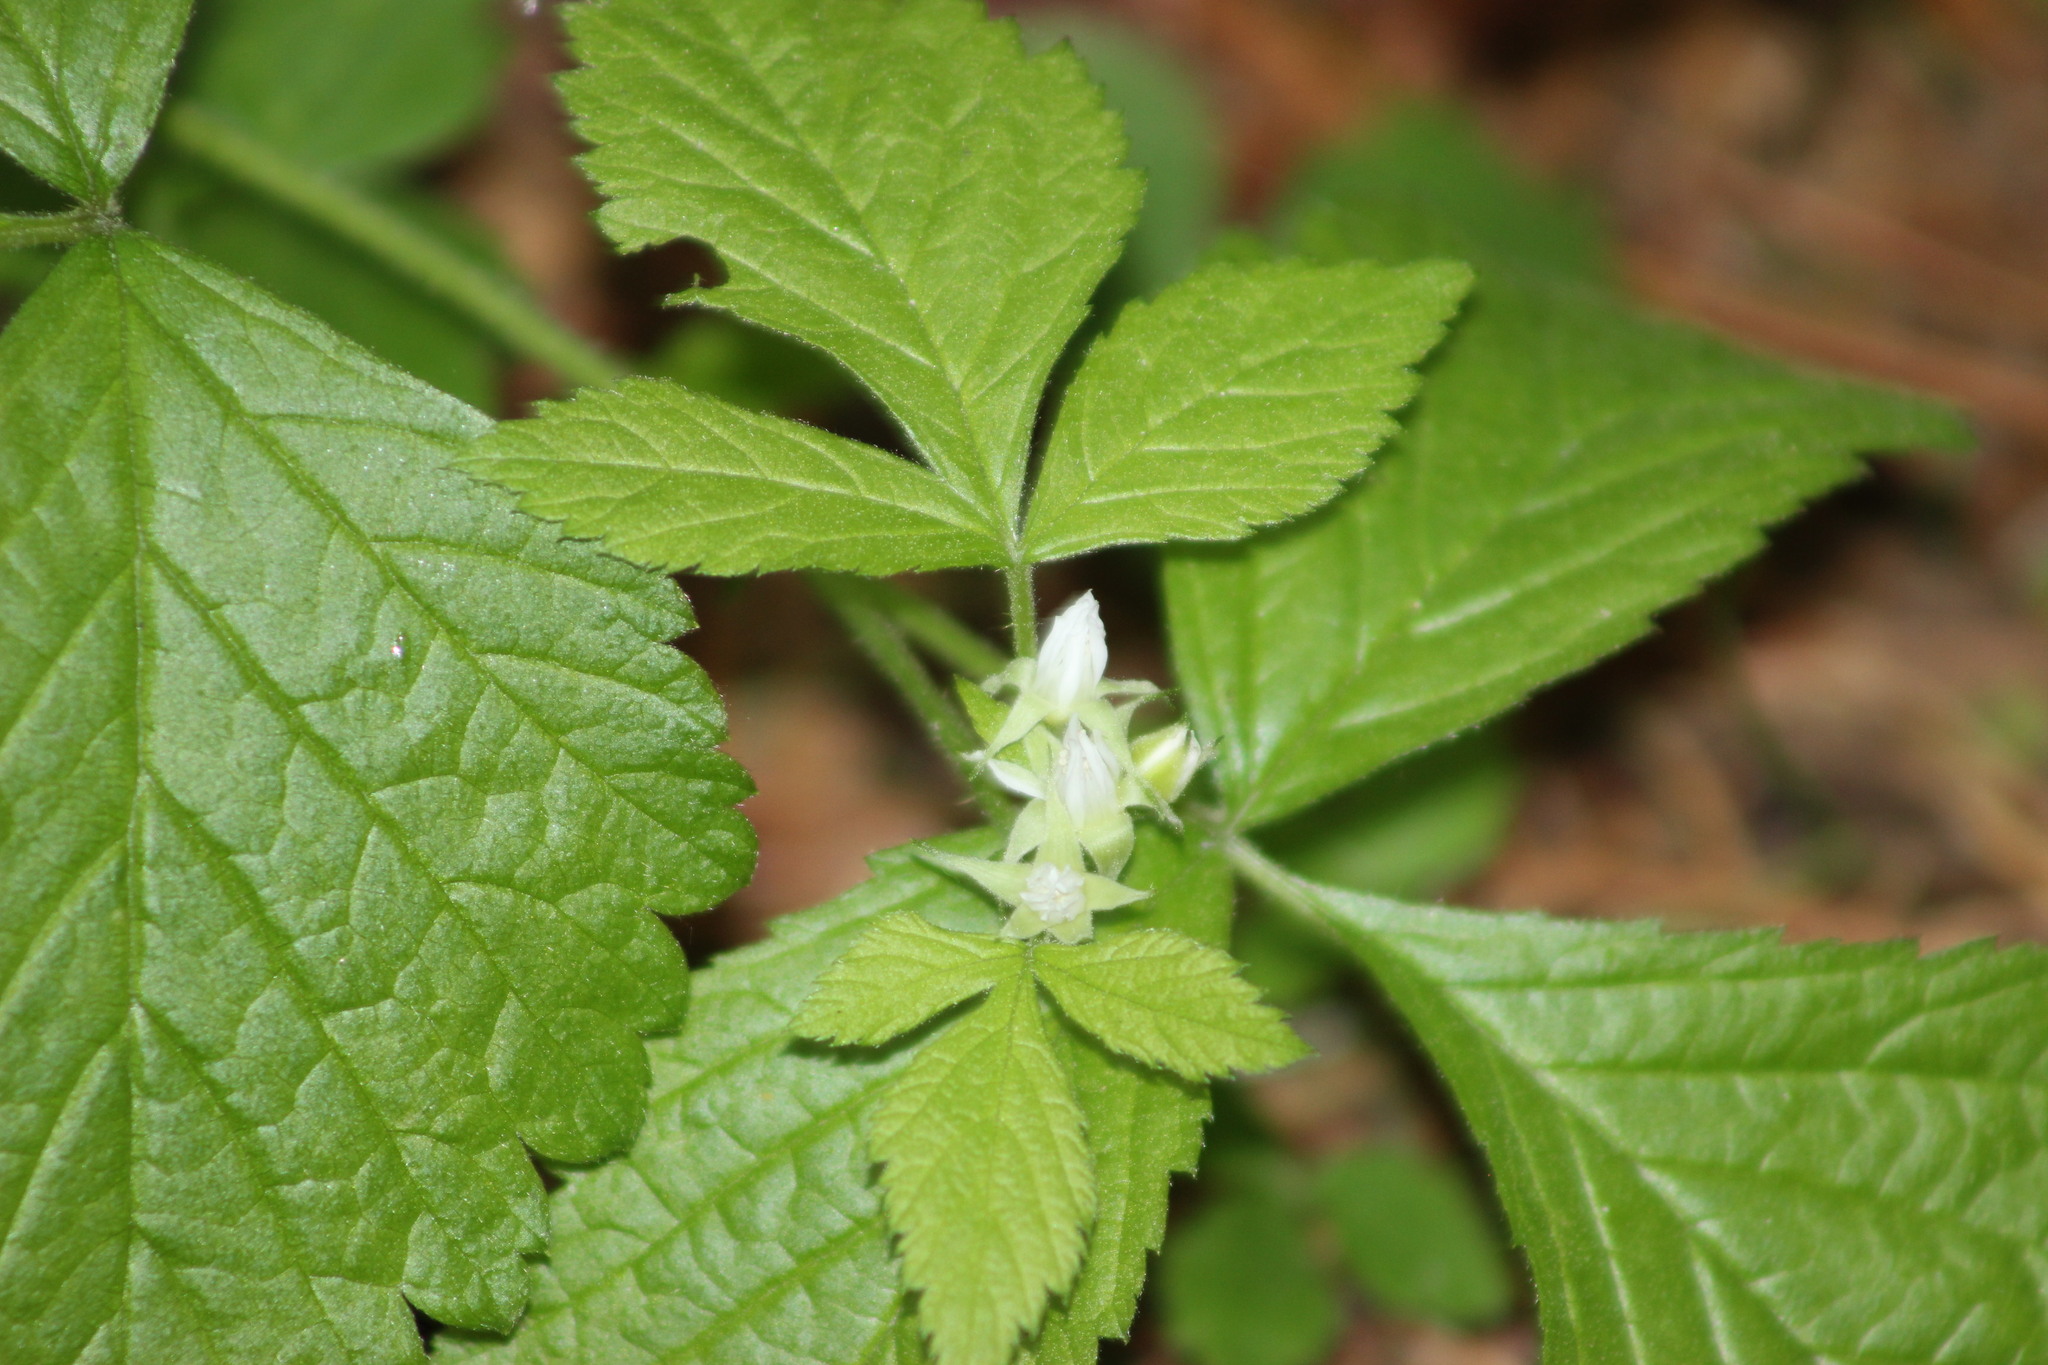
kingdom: Plantae
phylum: Tracheophyta
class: Magnoliopsida
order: Rosales
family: Rosaceae
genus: Rubus
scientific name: Rubus saxatilis
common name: Stone bramble
